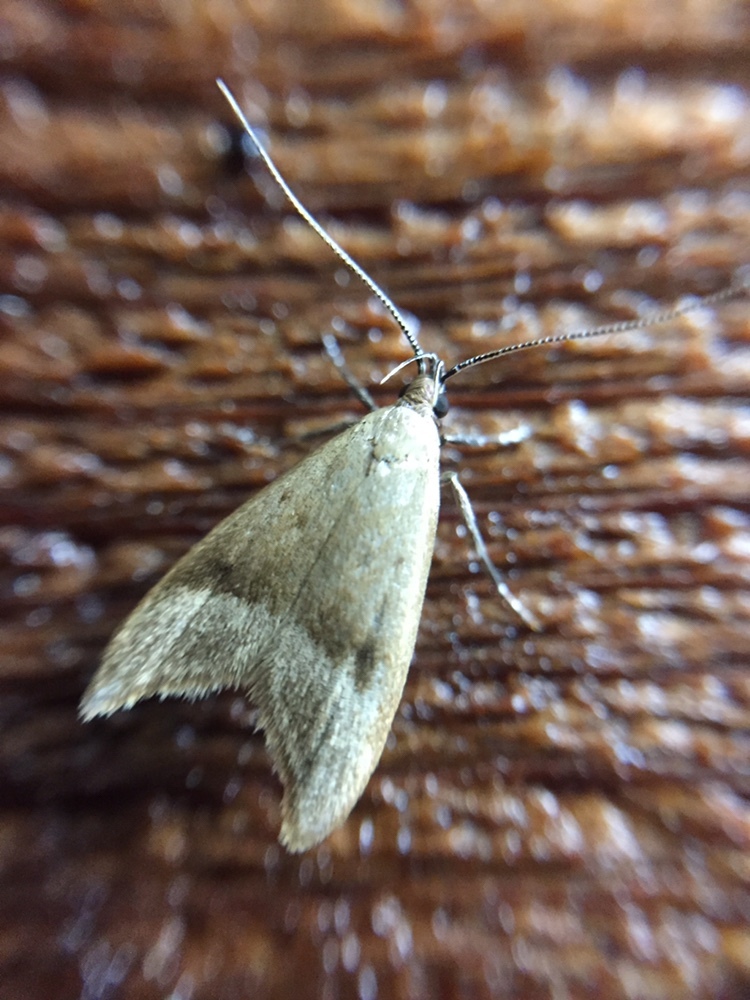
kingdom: Animalia
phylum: Arthropoda
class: Insecta
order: Lepidoptera
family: Oecophoridae
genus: Gymnobathra
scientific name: Gymnobathra hyetodes
